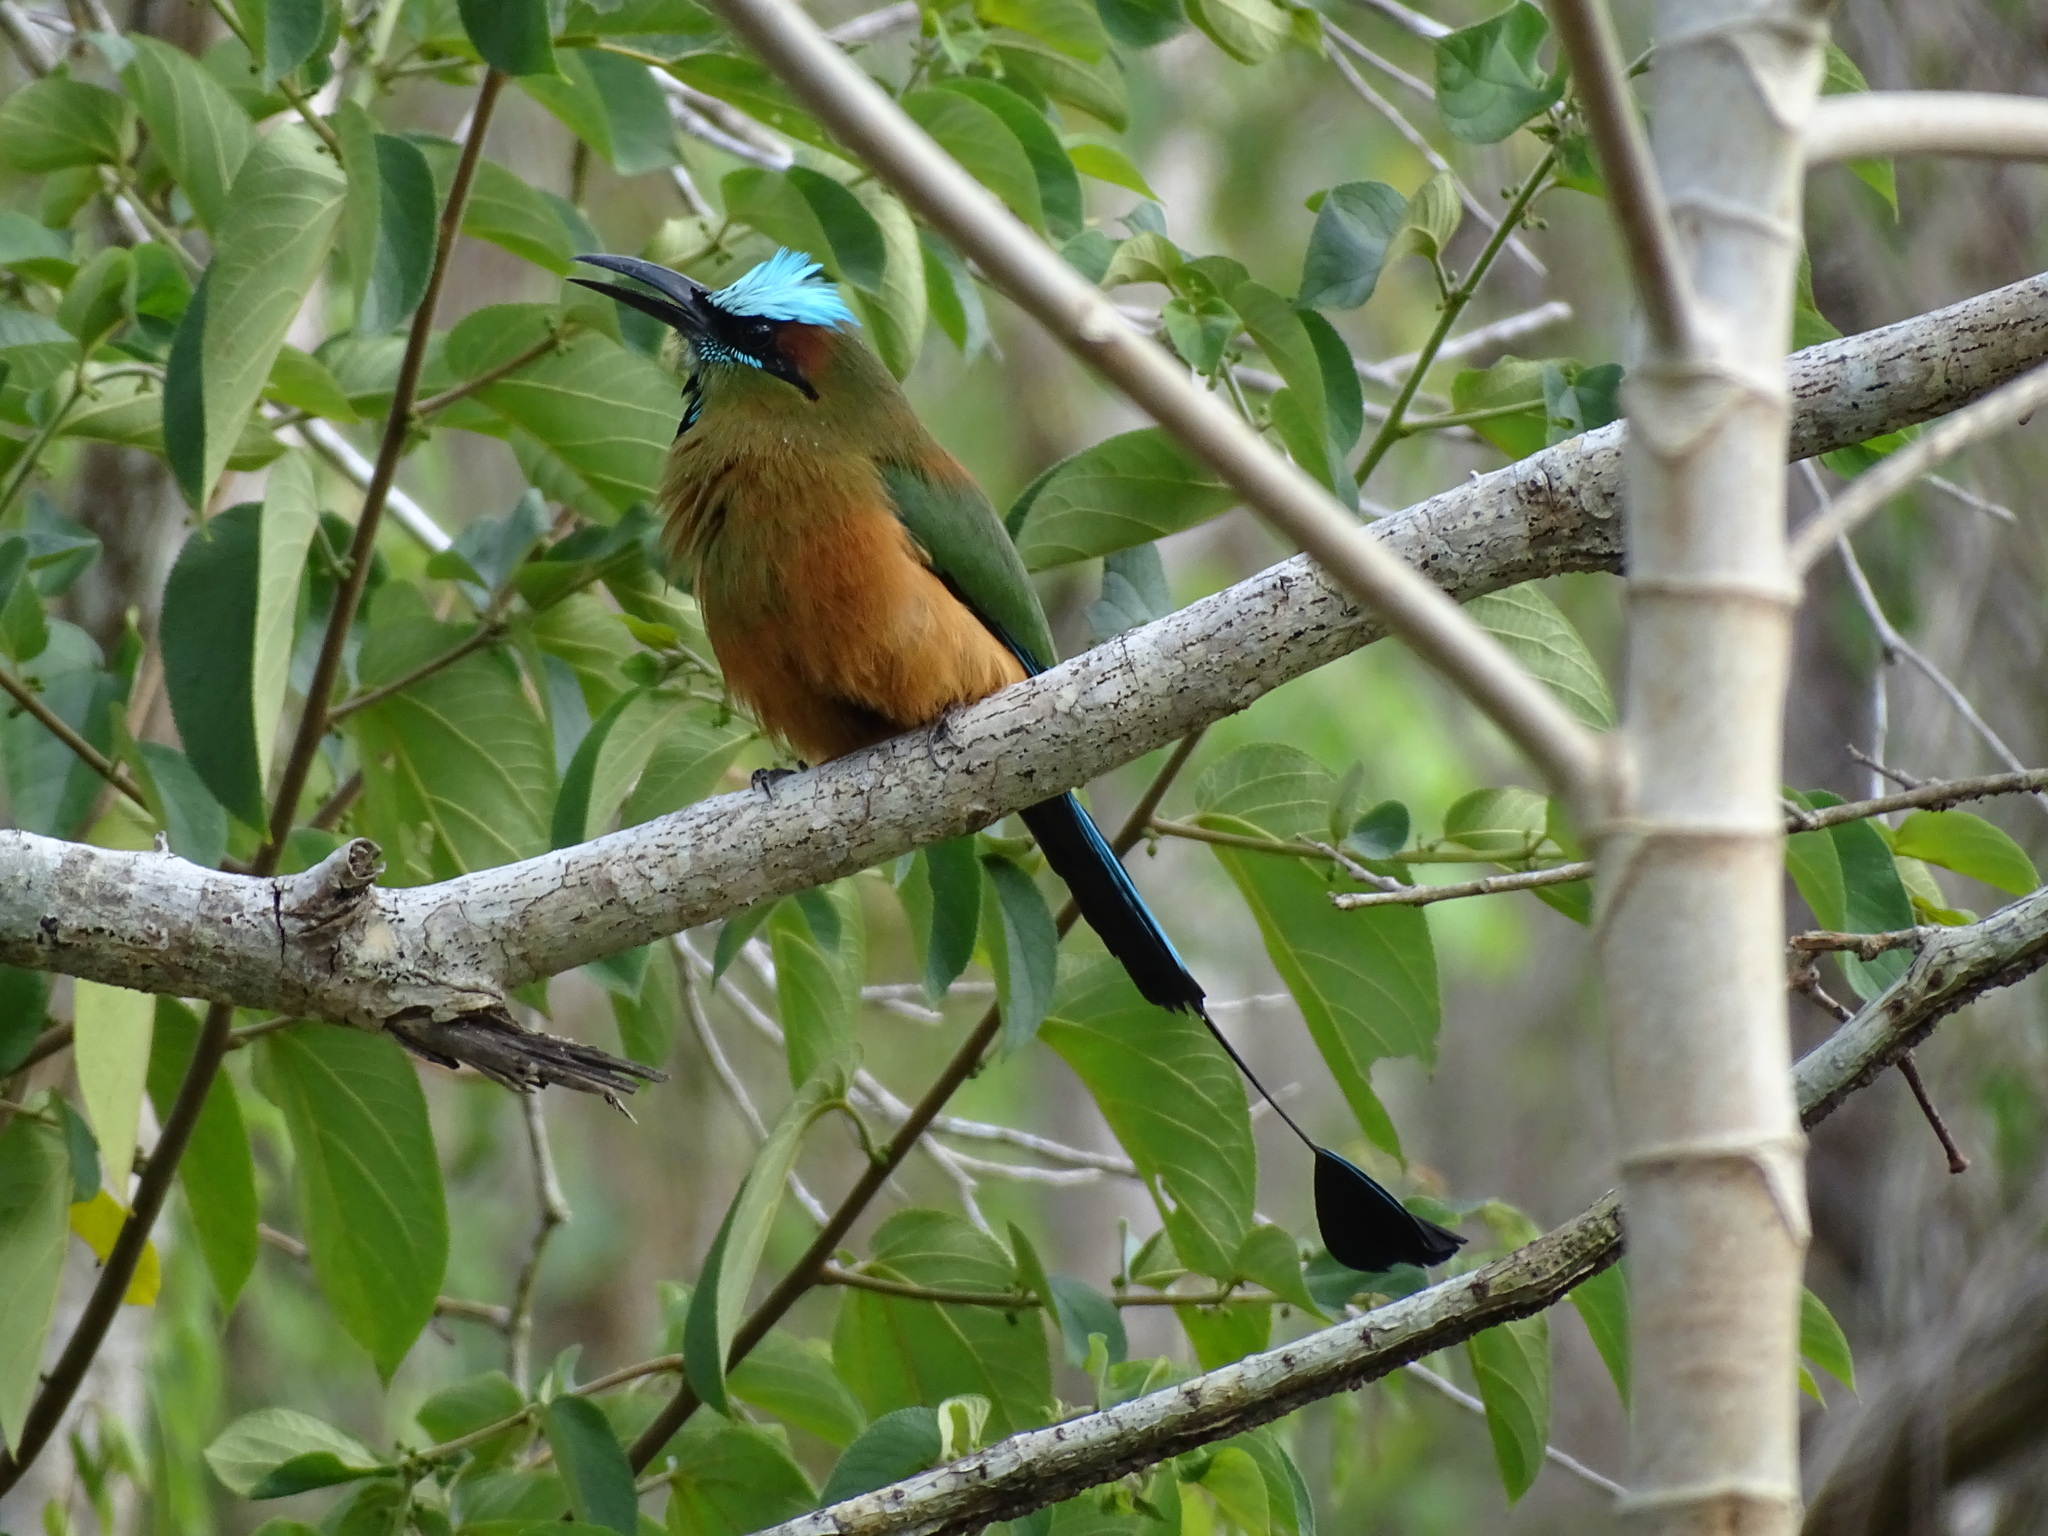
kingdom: Animalia
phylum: Chordata
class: Aves
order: Coraciiformes
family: Momotidae
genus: Eumomota
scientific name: Eumomota superciliosa
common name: Turquoise-browed motmot
